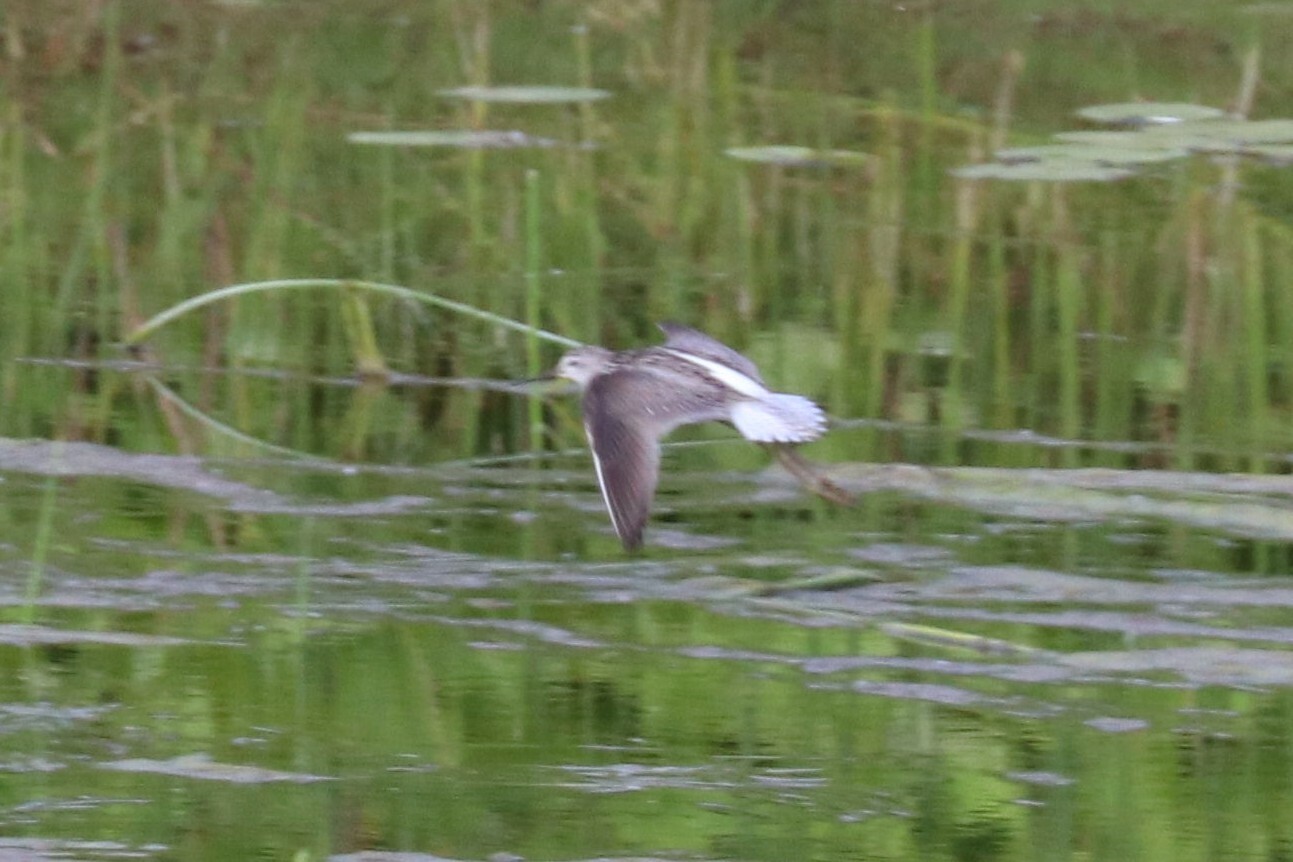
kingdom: Animalia
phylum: Chordata
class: Aves
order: Charadriiformes
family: Scolopacidae
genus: Tringa
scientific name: Tringa stagnatilis
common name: Marsh sandpiper
